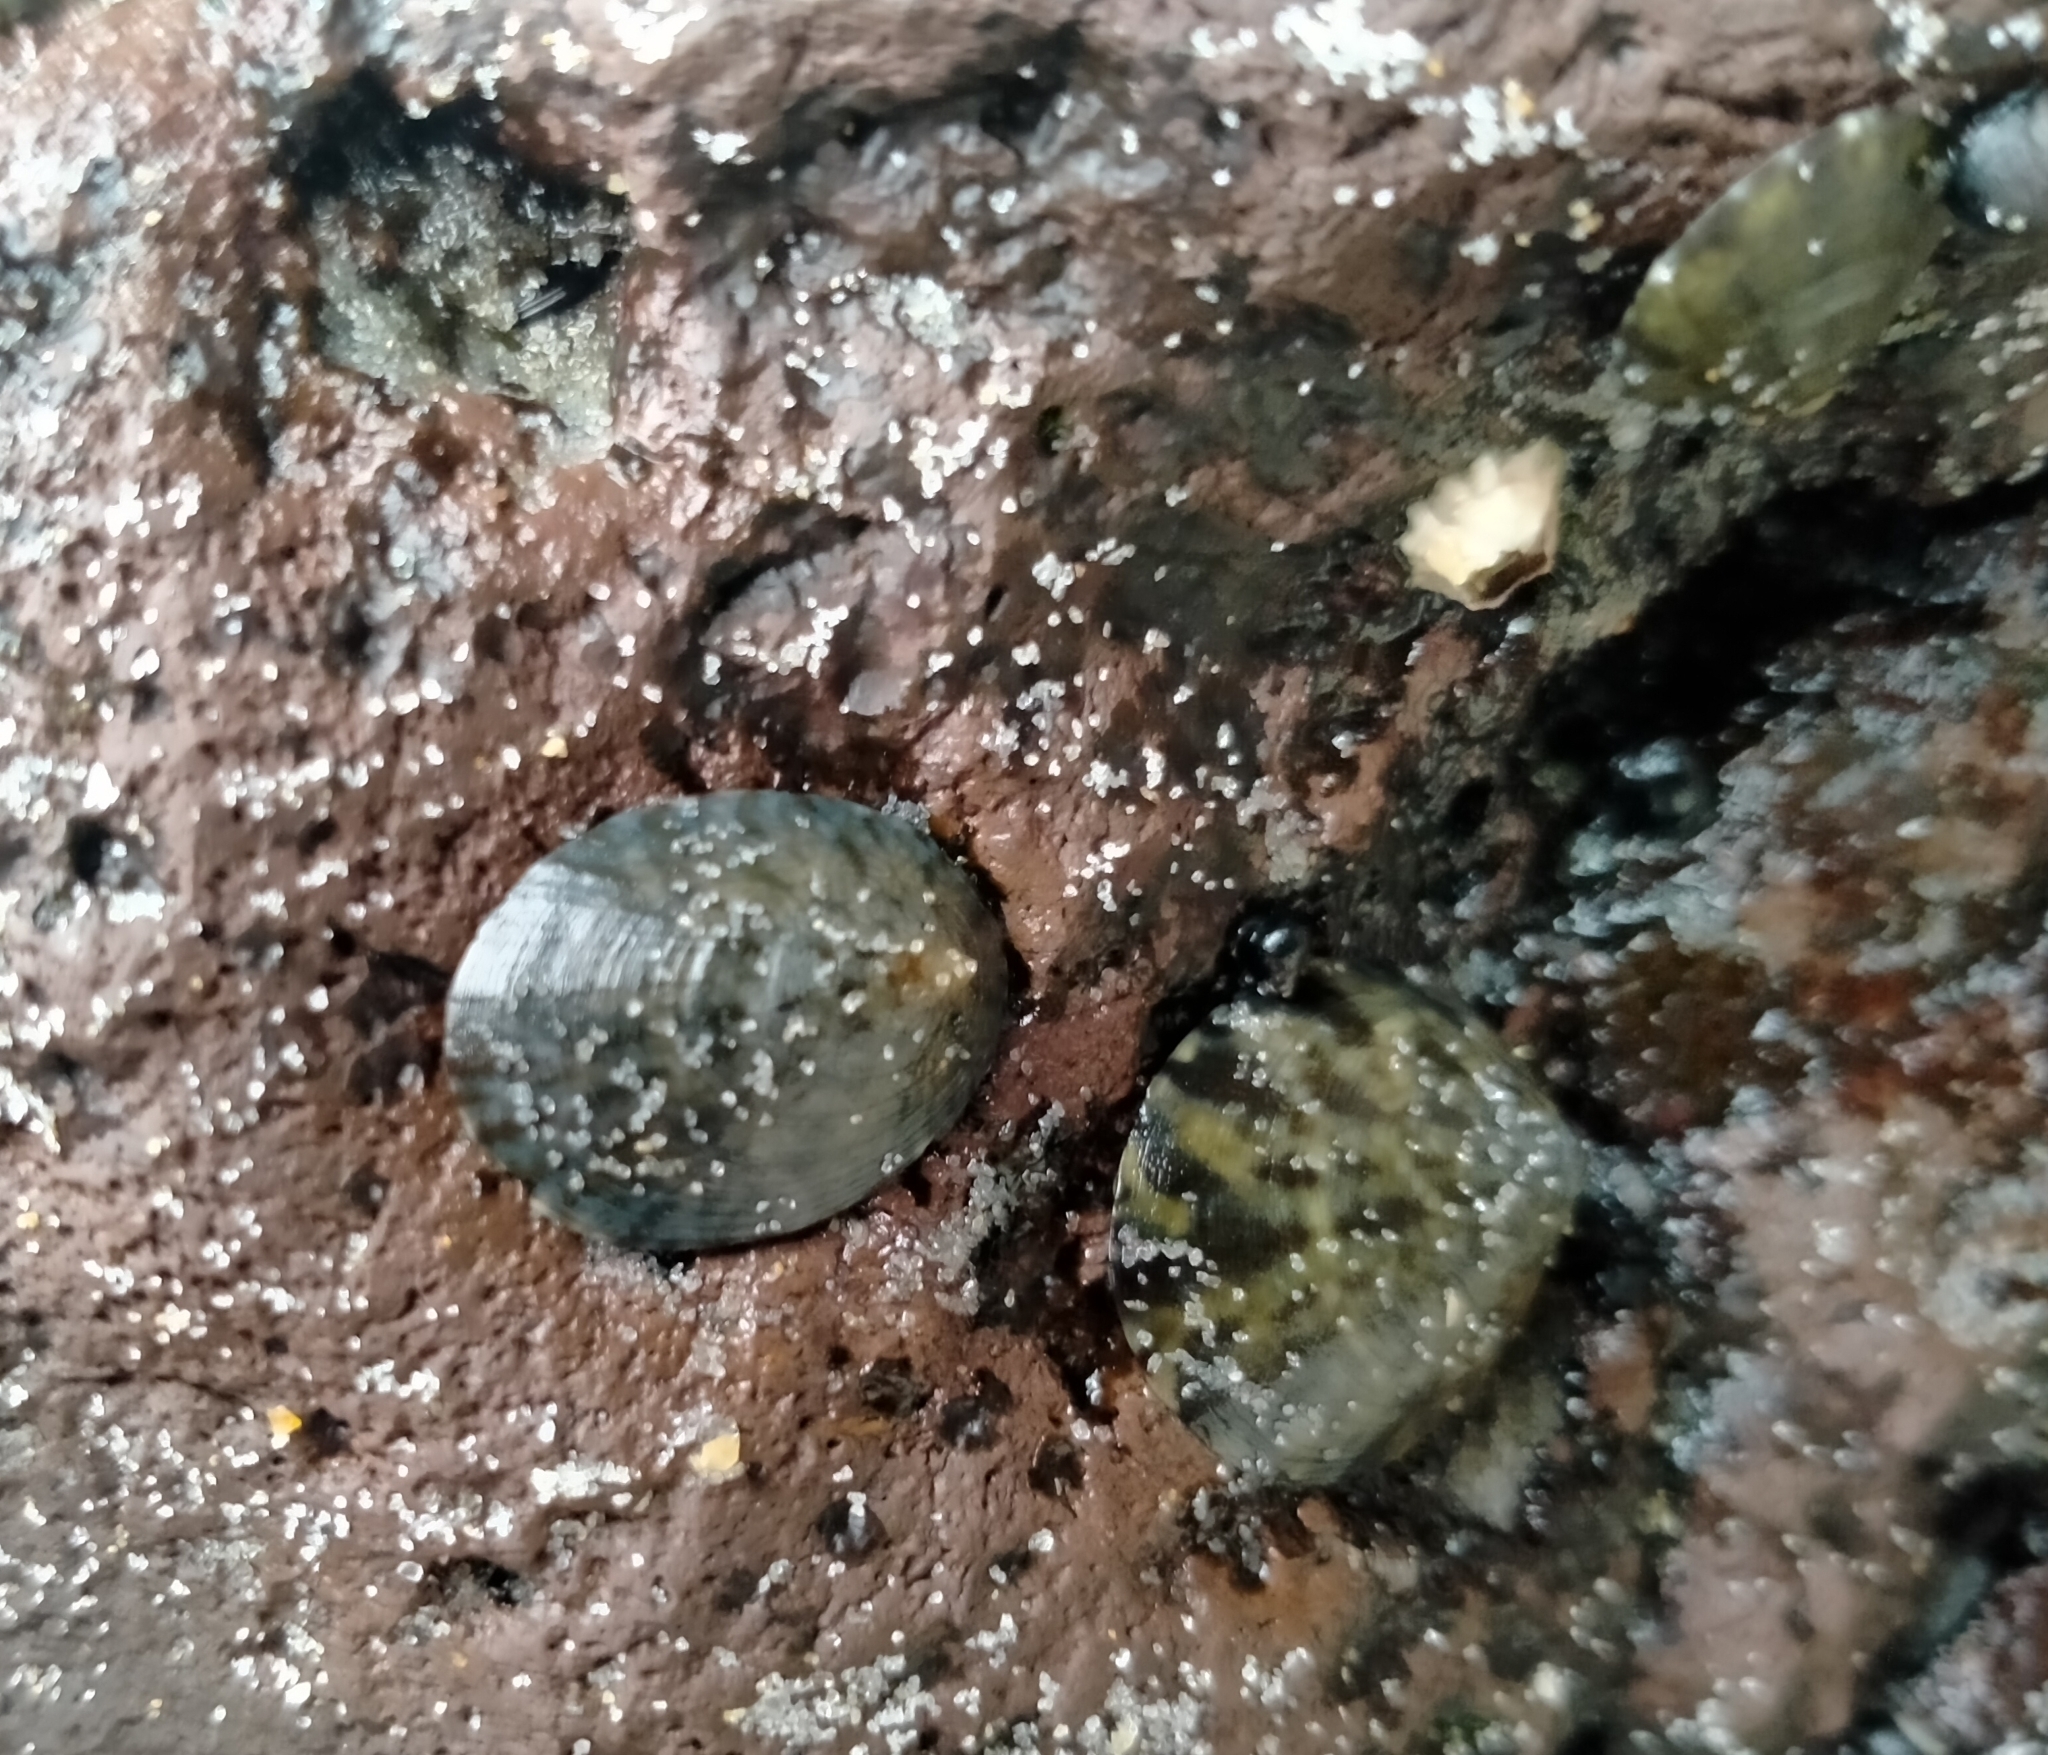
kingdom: Animalia
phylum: Mollusca
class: Gastropoda
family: Nacellidae
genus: Cellana
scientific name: Cellana radians
